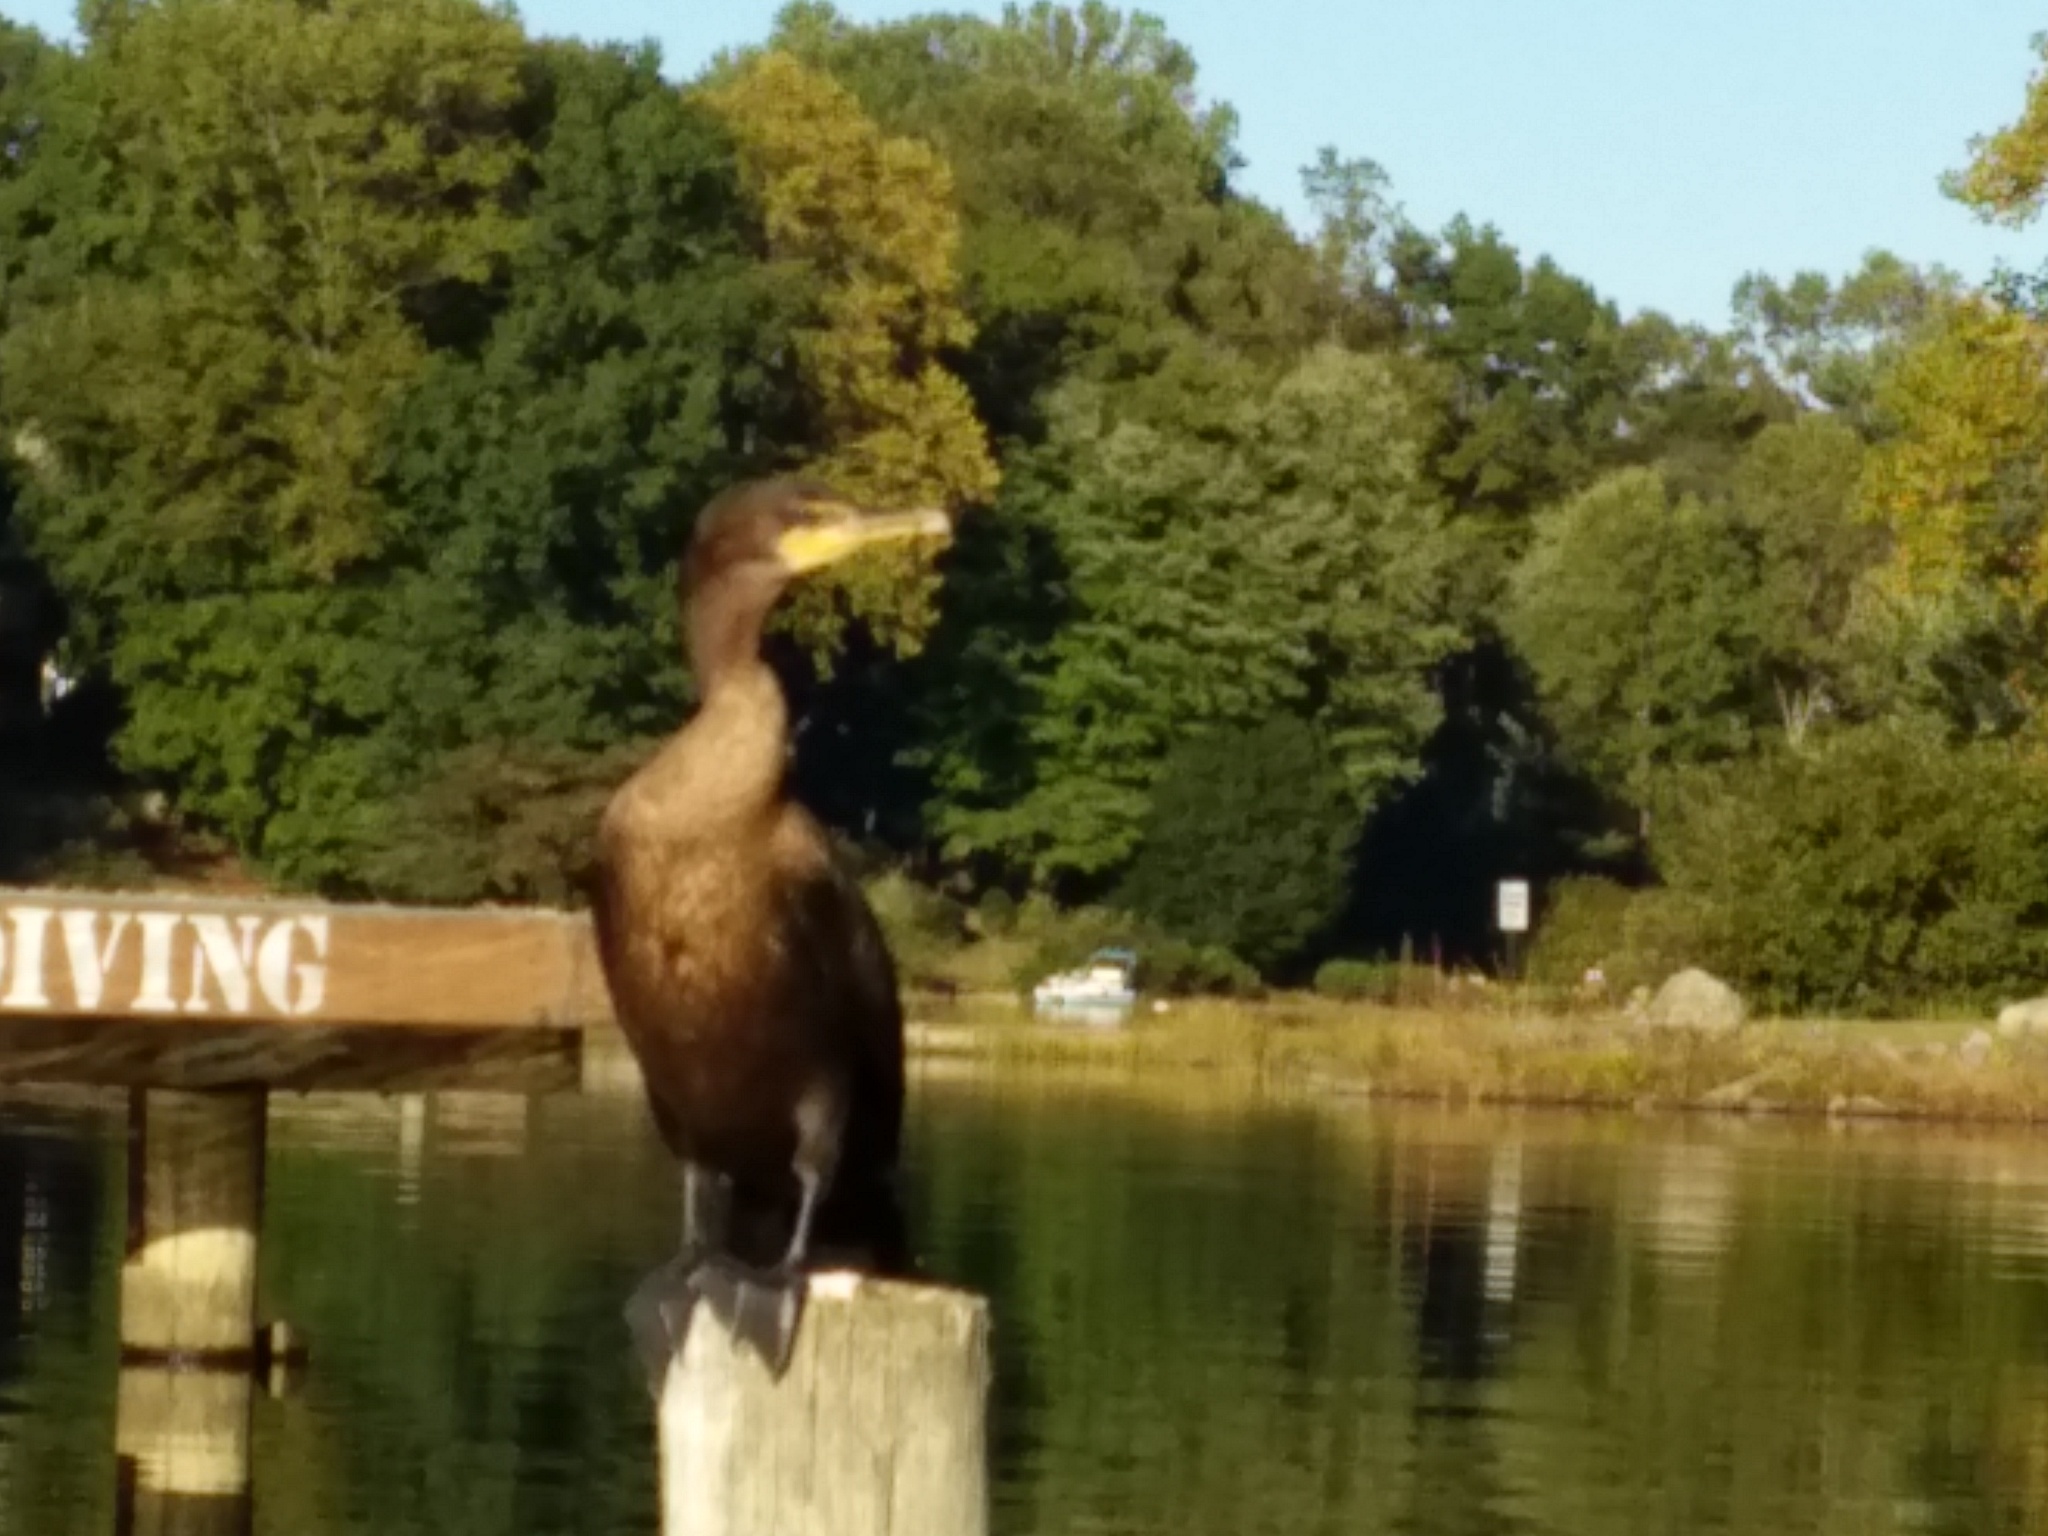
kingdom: Animalia
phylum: Chordata
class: Aves
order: Suliformes
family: Phalacrocoracidae
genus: Phalacrocorax
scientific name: Phalacrocorax auritus
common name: Double-crested cormorant
